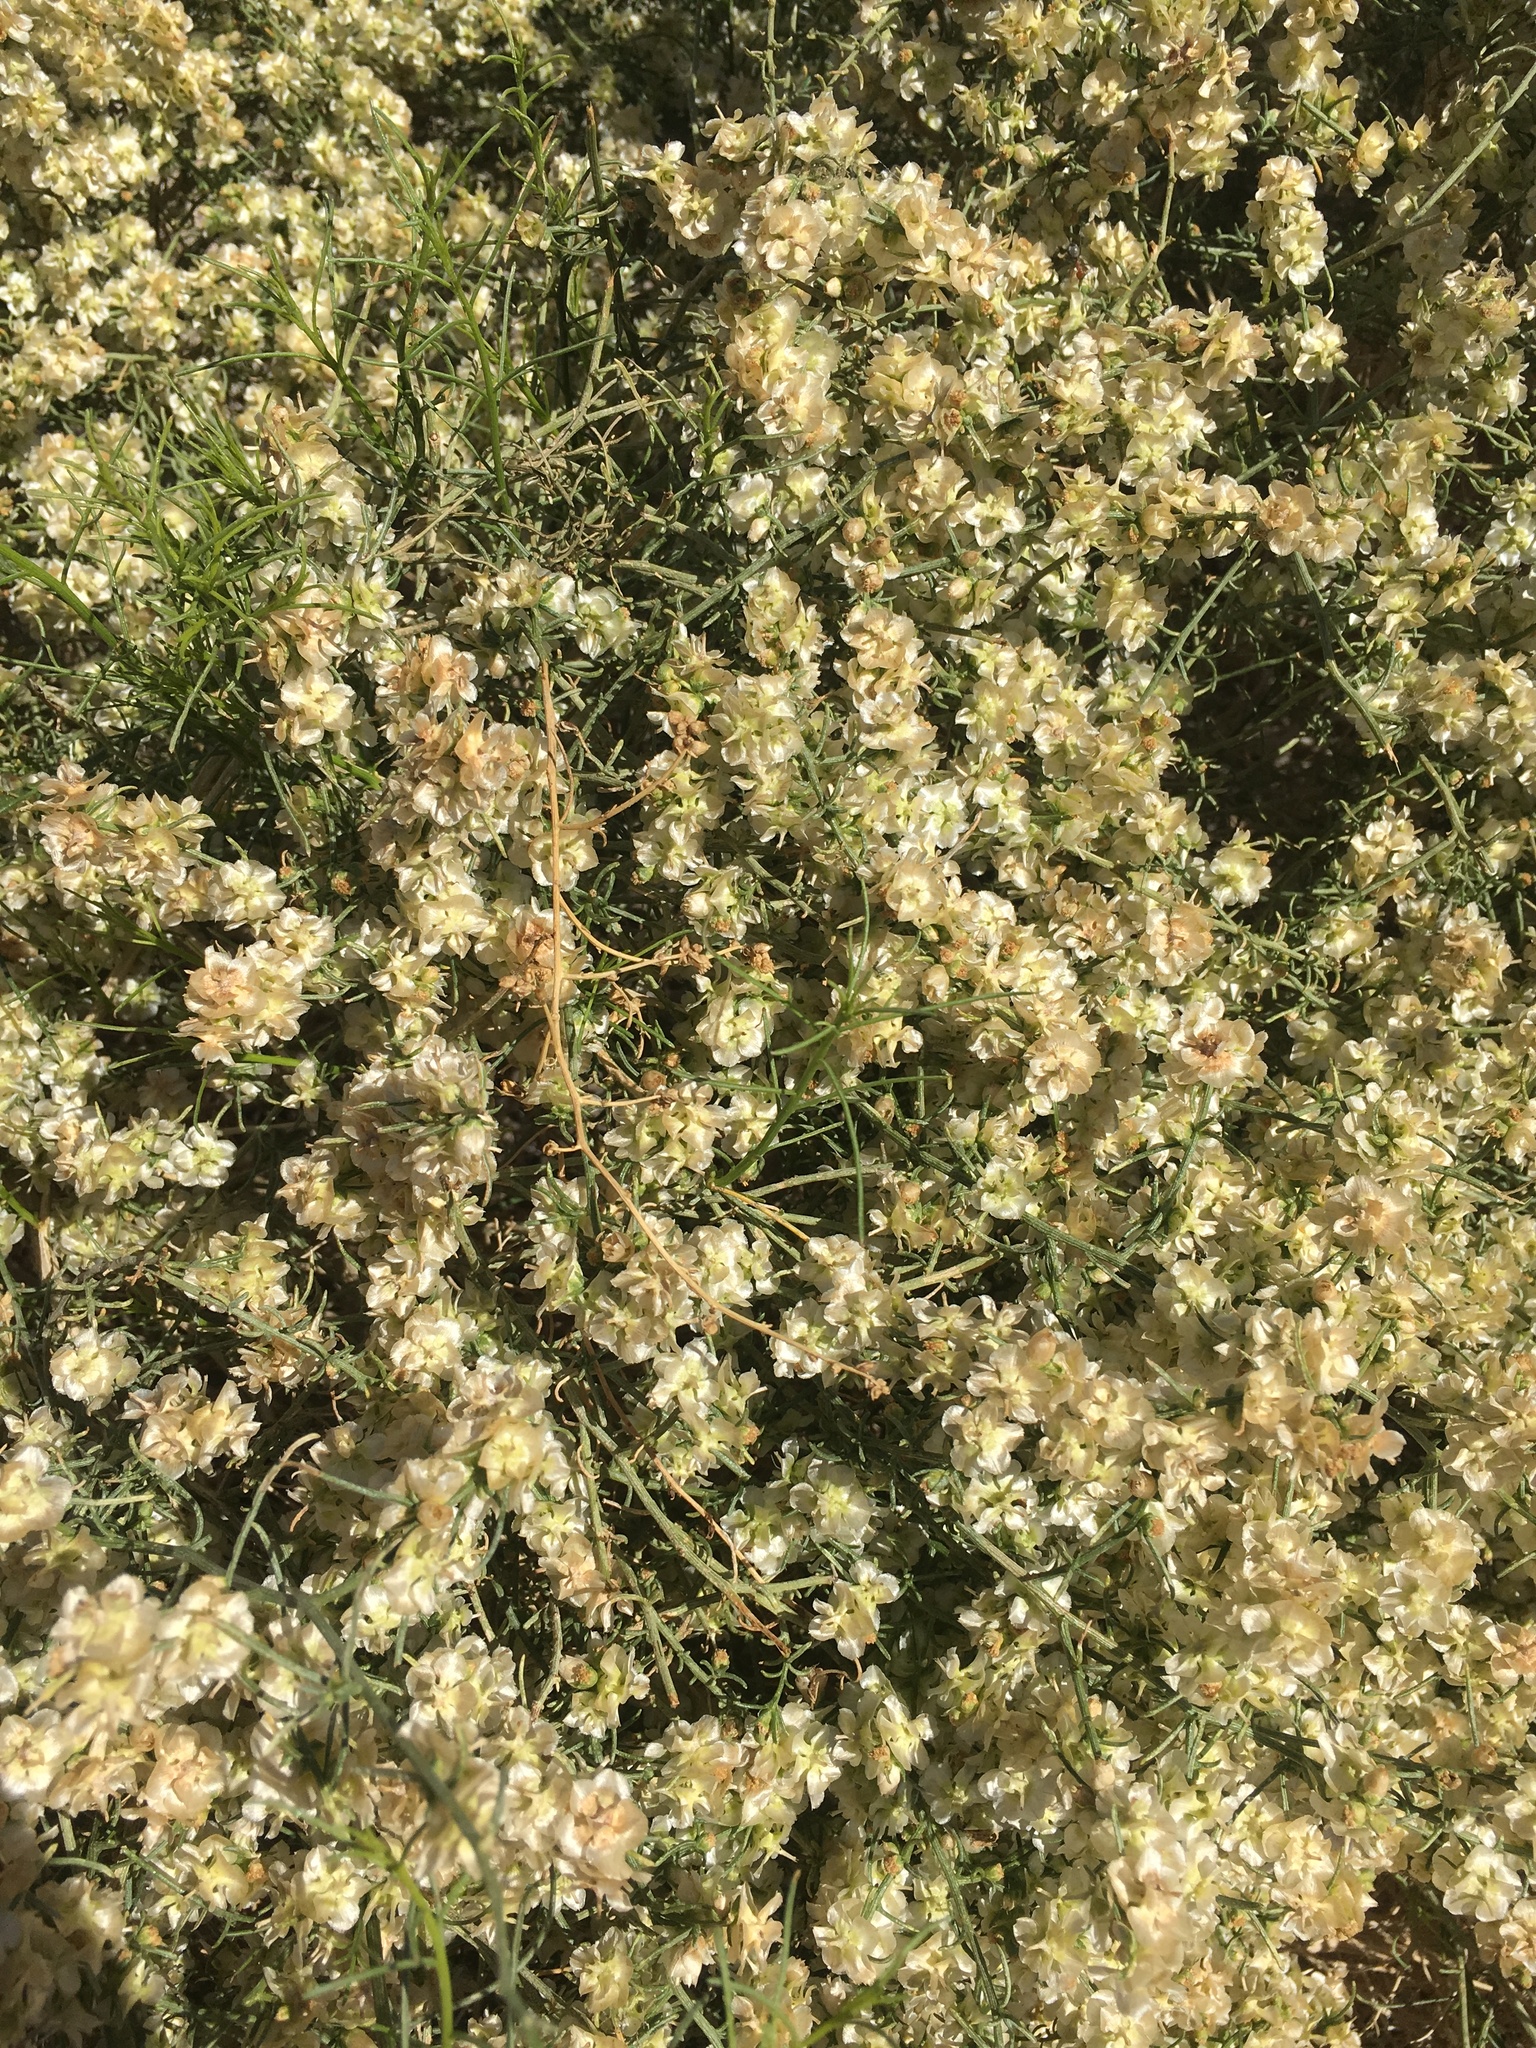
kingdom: Plantae
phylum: Tracheophyta
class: Magnoliopsida
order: Asterales
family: Asteraceae
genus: Ambrosia
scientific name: Ambrosia salsola
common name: Burrobrush
